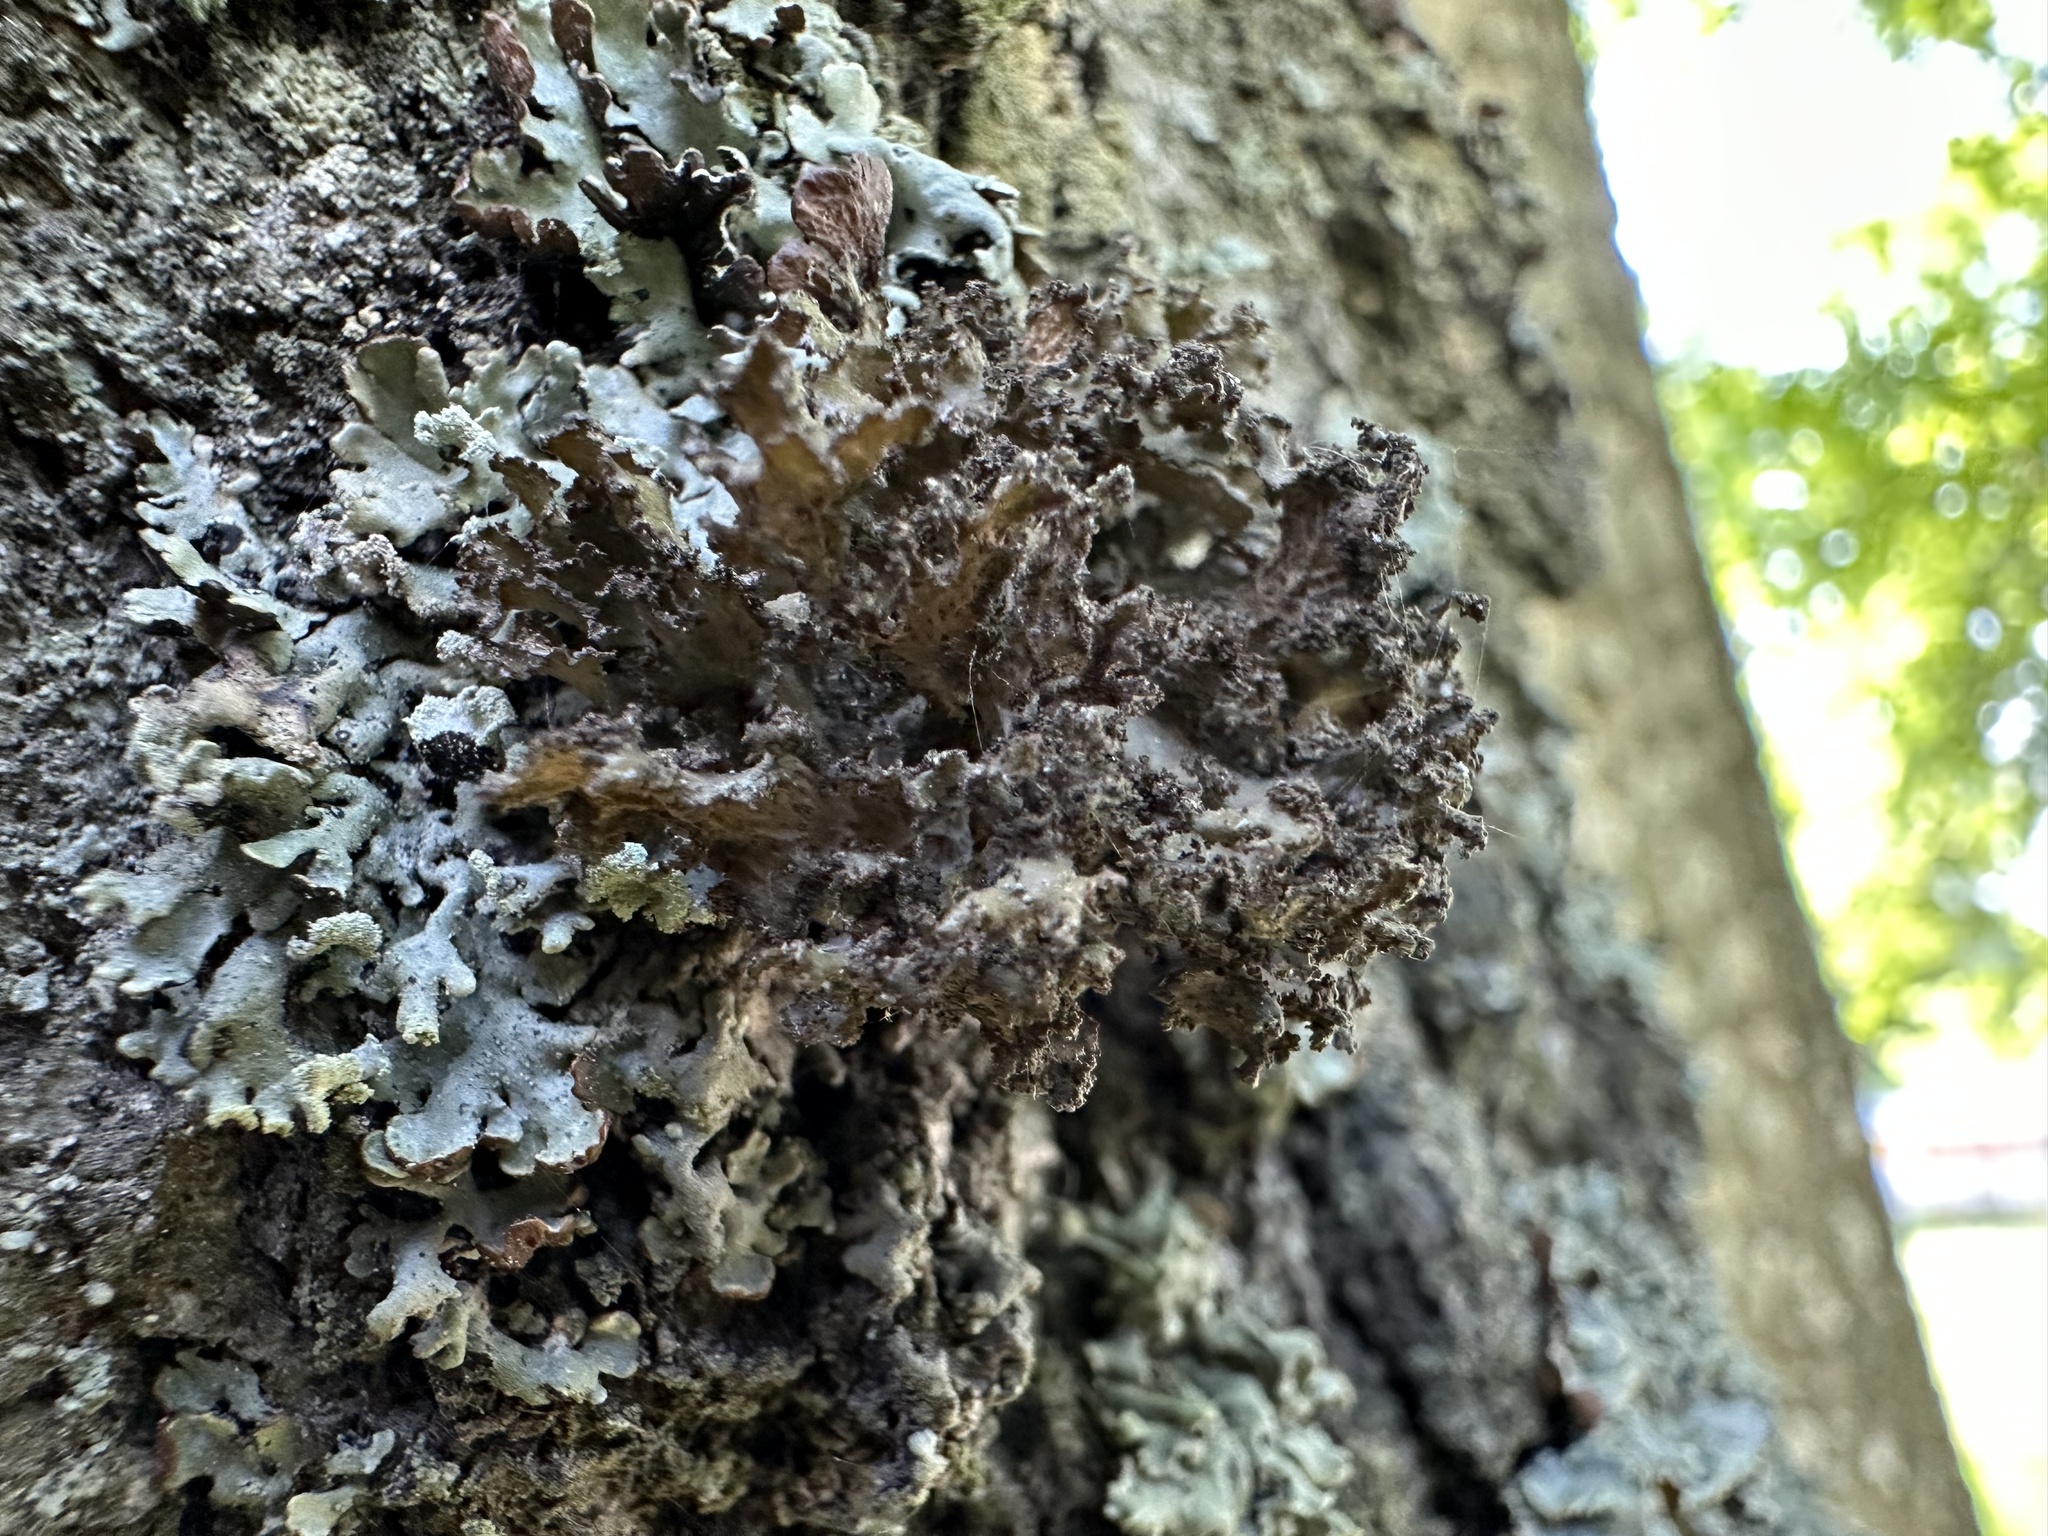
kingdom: Fungi
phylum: Ascomycota
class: Lecanoromycetes
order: Lecanorales
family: Parmeliaceae
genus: Nephromopsis
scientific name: Nephromopsis chlorophylla
